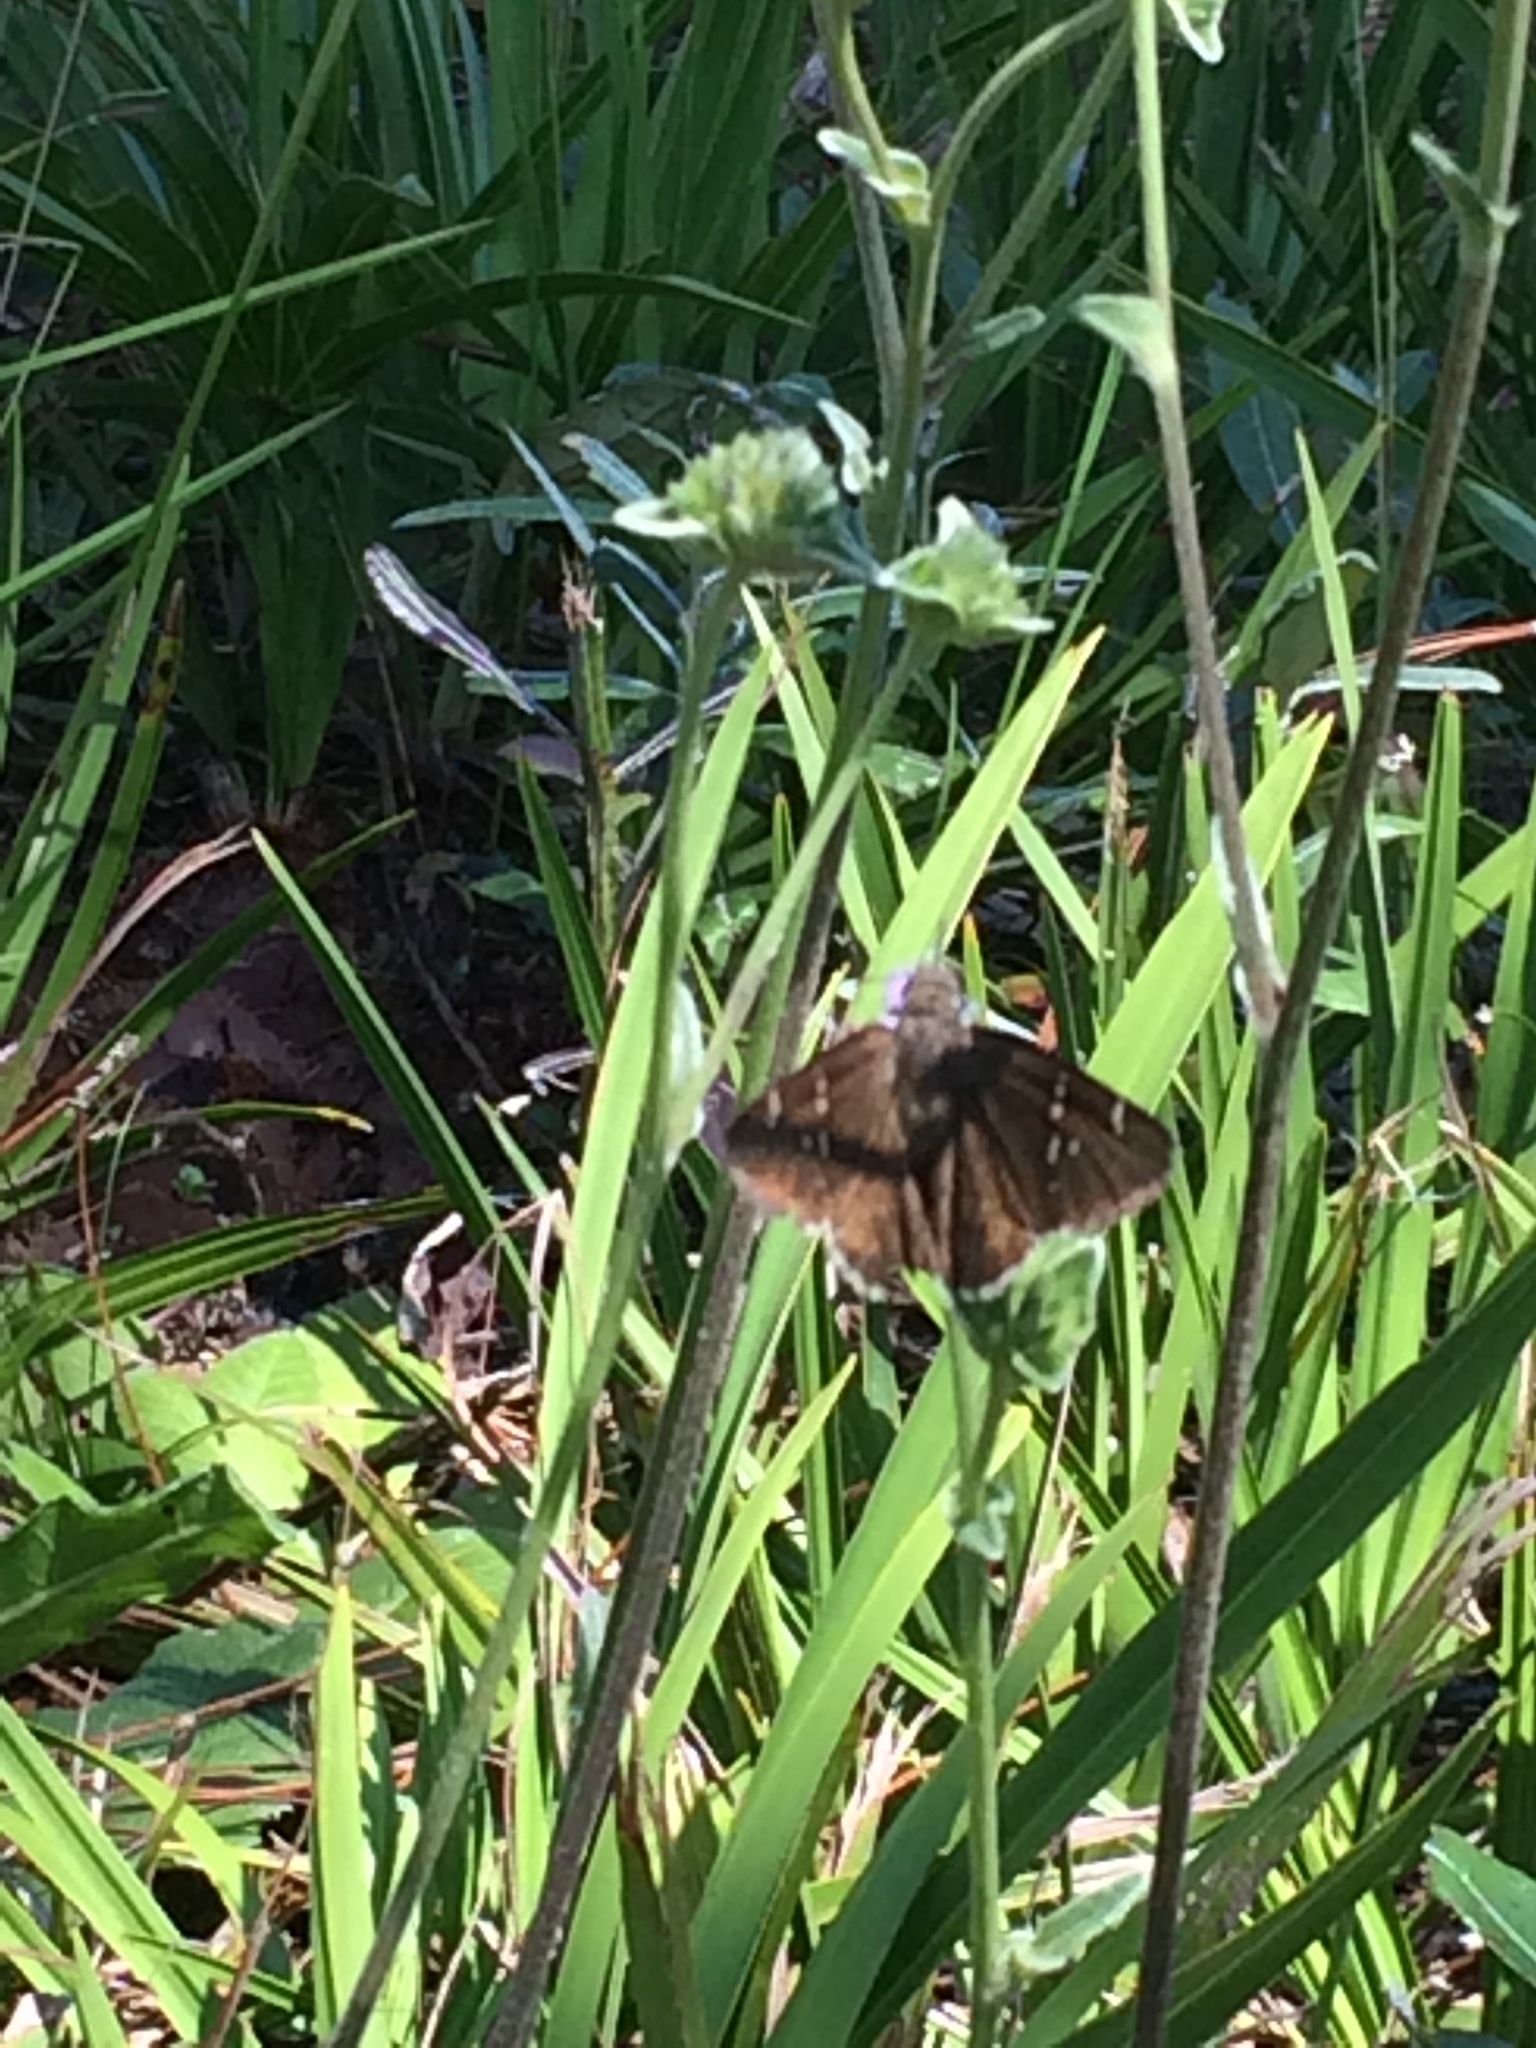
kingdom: Animalia
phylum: Arthropoda
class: Insecta
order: Lepidoptera
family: Hesperiidae
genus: Thorybes
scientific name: Thorybes mexicana
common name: Mexican cloudywing
